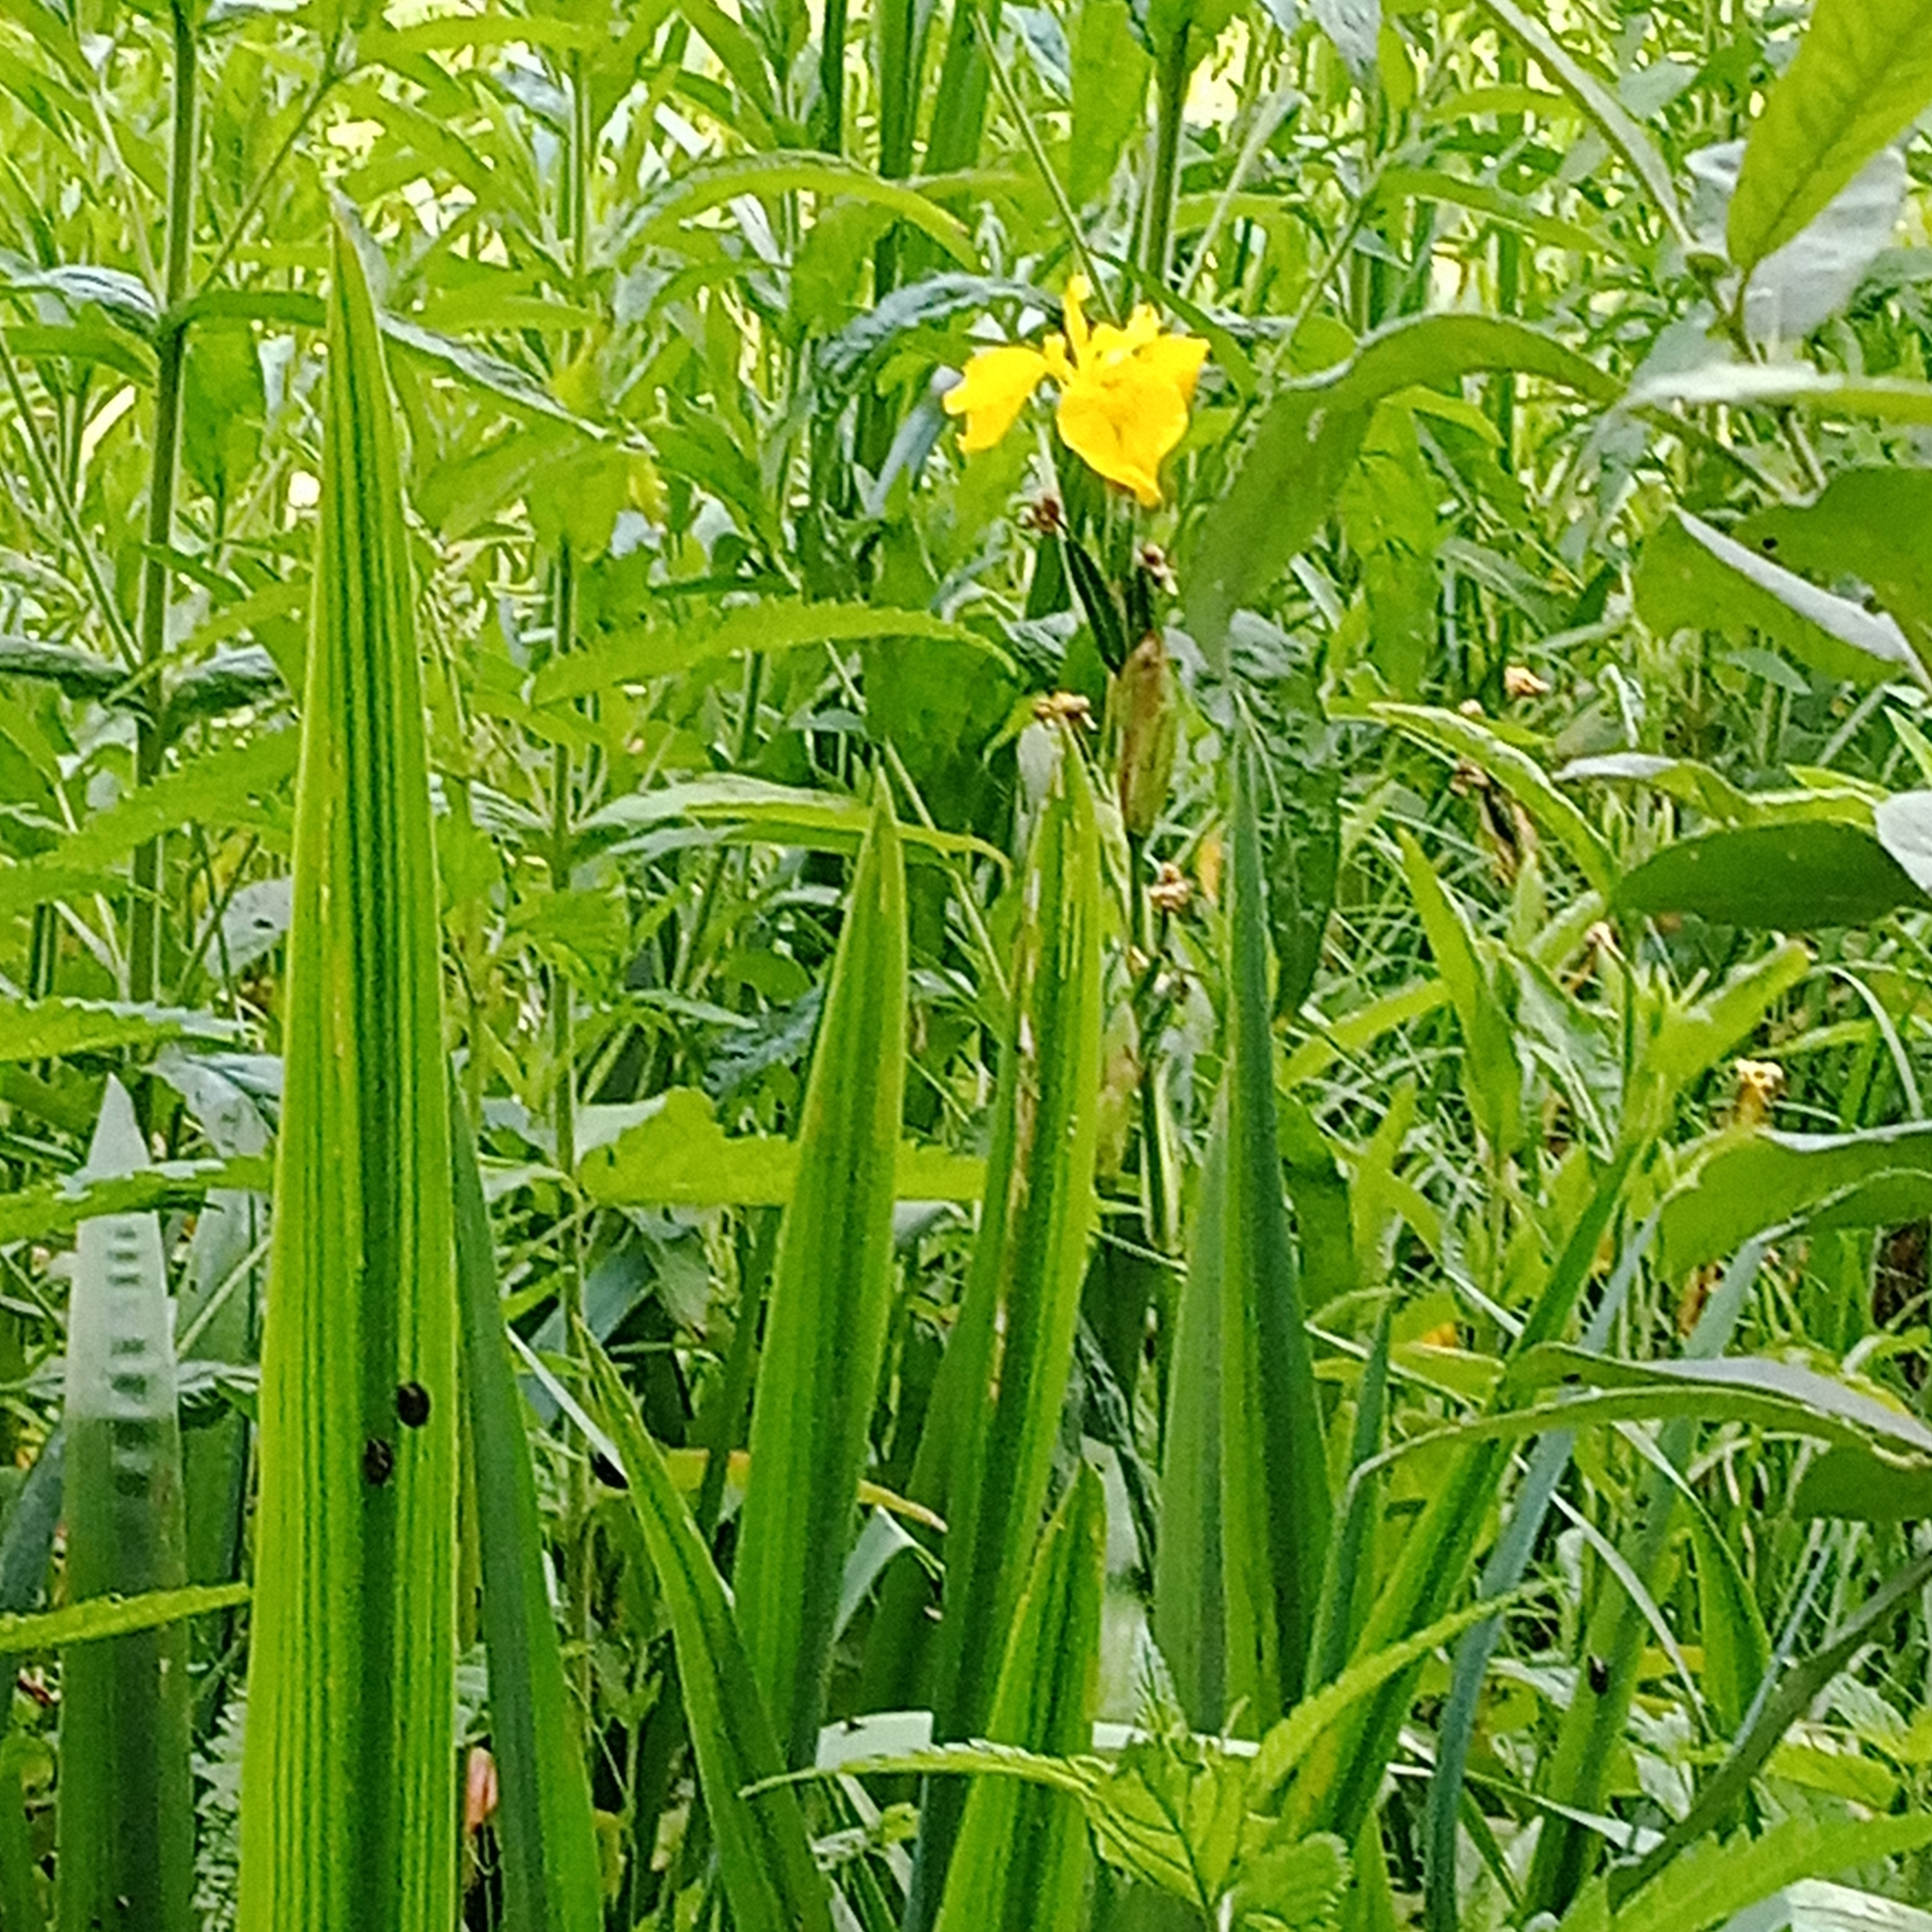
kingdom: Plantae
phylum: Tracheophyta
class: Liliopsida
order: Asparagales
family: Iridaceae
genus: Iris
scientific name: Iris pseudacorus
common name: Yellow flag
